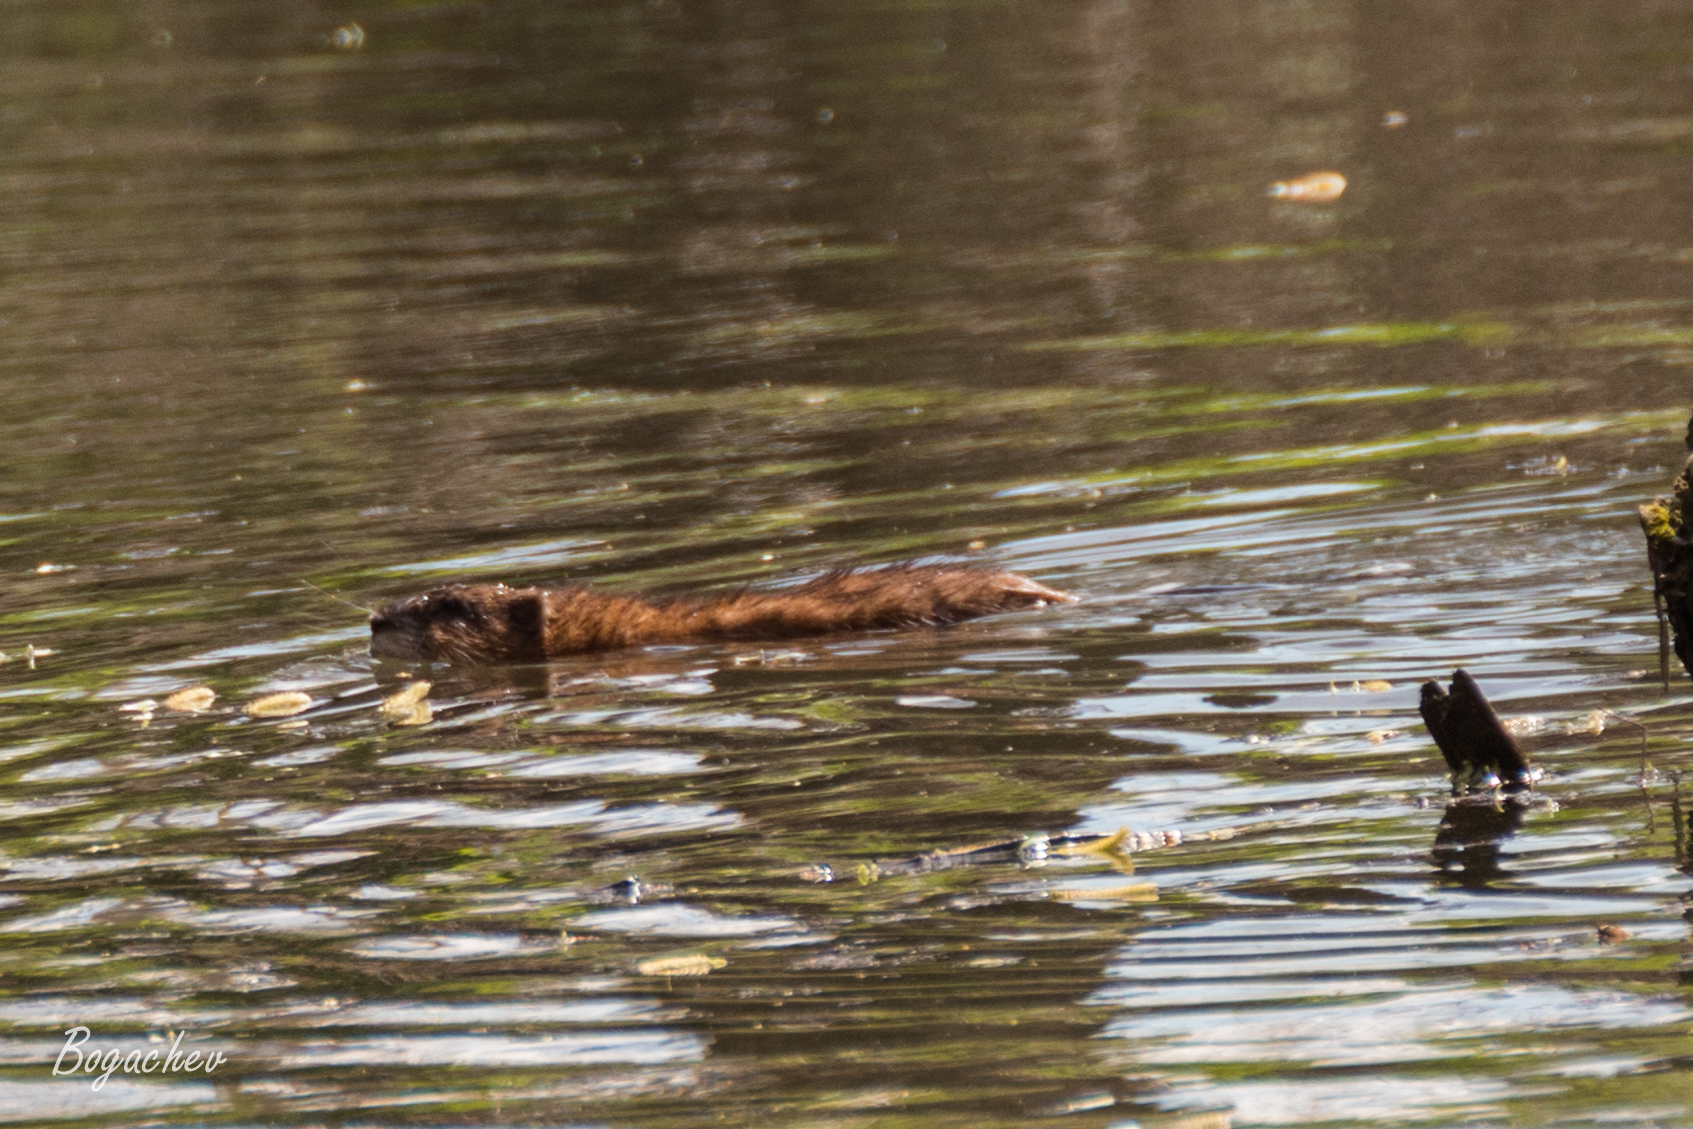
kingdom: Animalia
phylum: Chordata
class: Mammalia
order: Rodentia
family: Cricetidae
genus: Ondatra
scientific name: Ondatra zibethicus
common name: Muskrat
